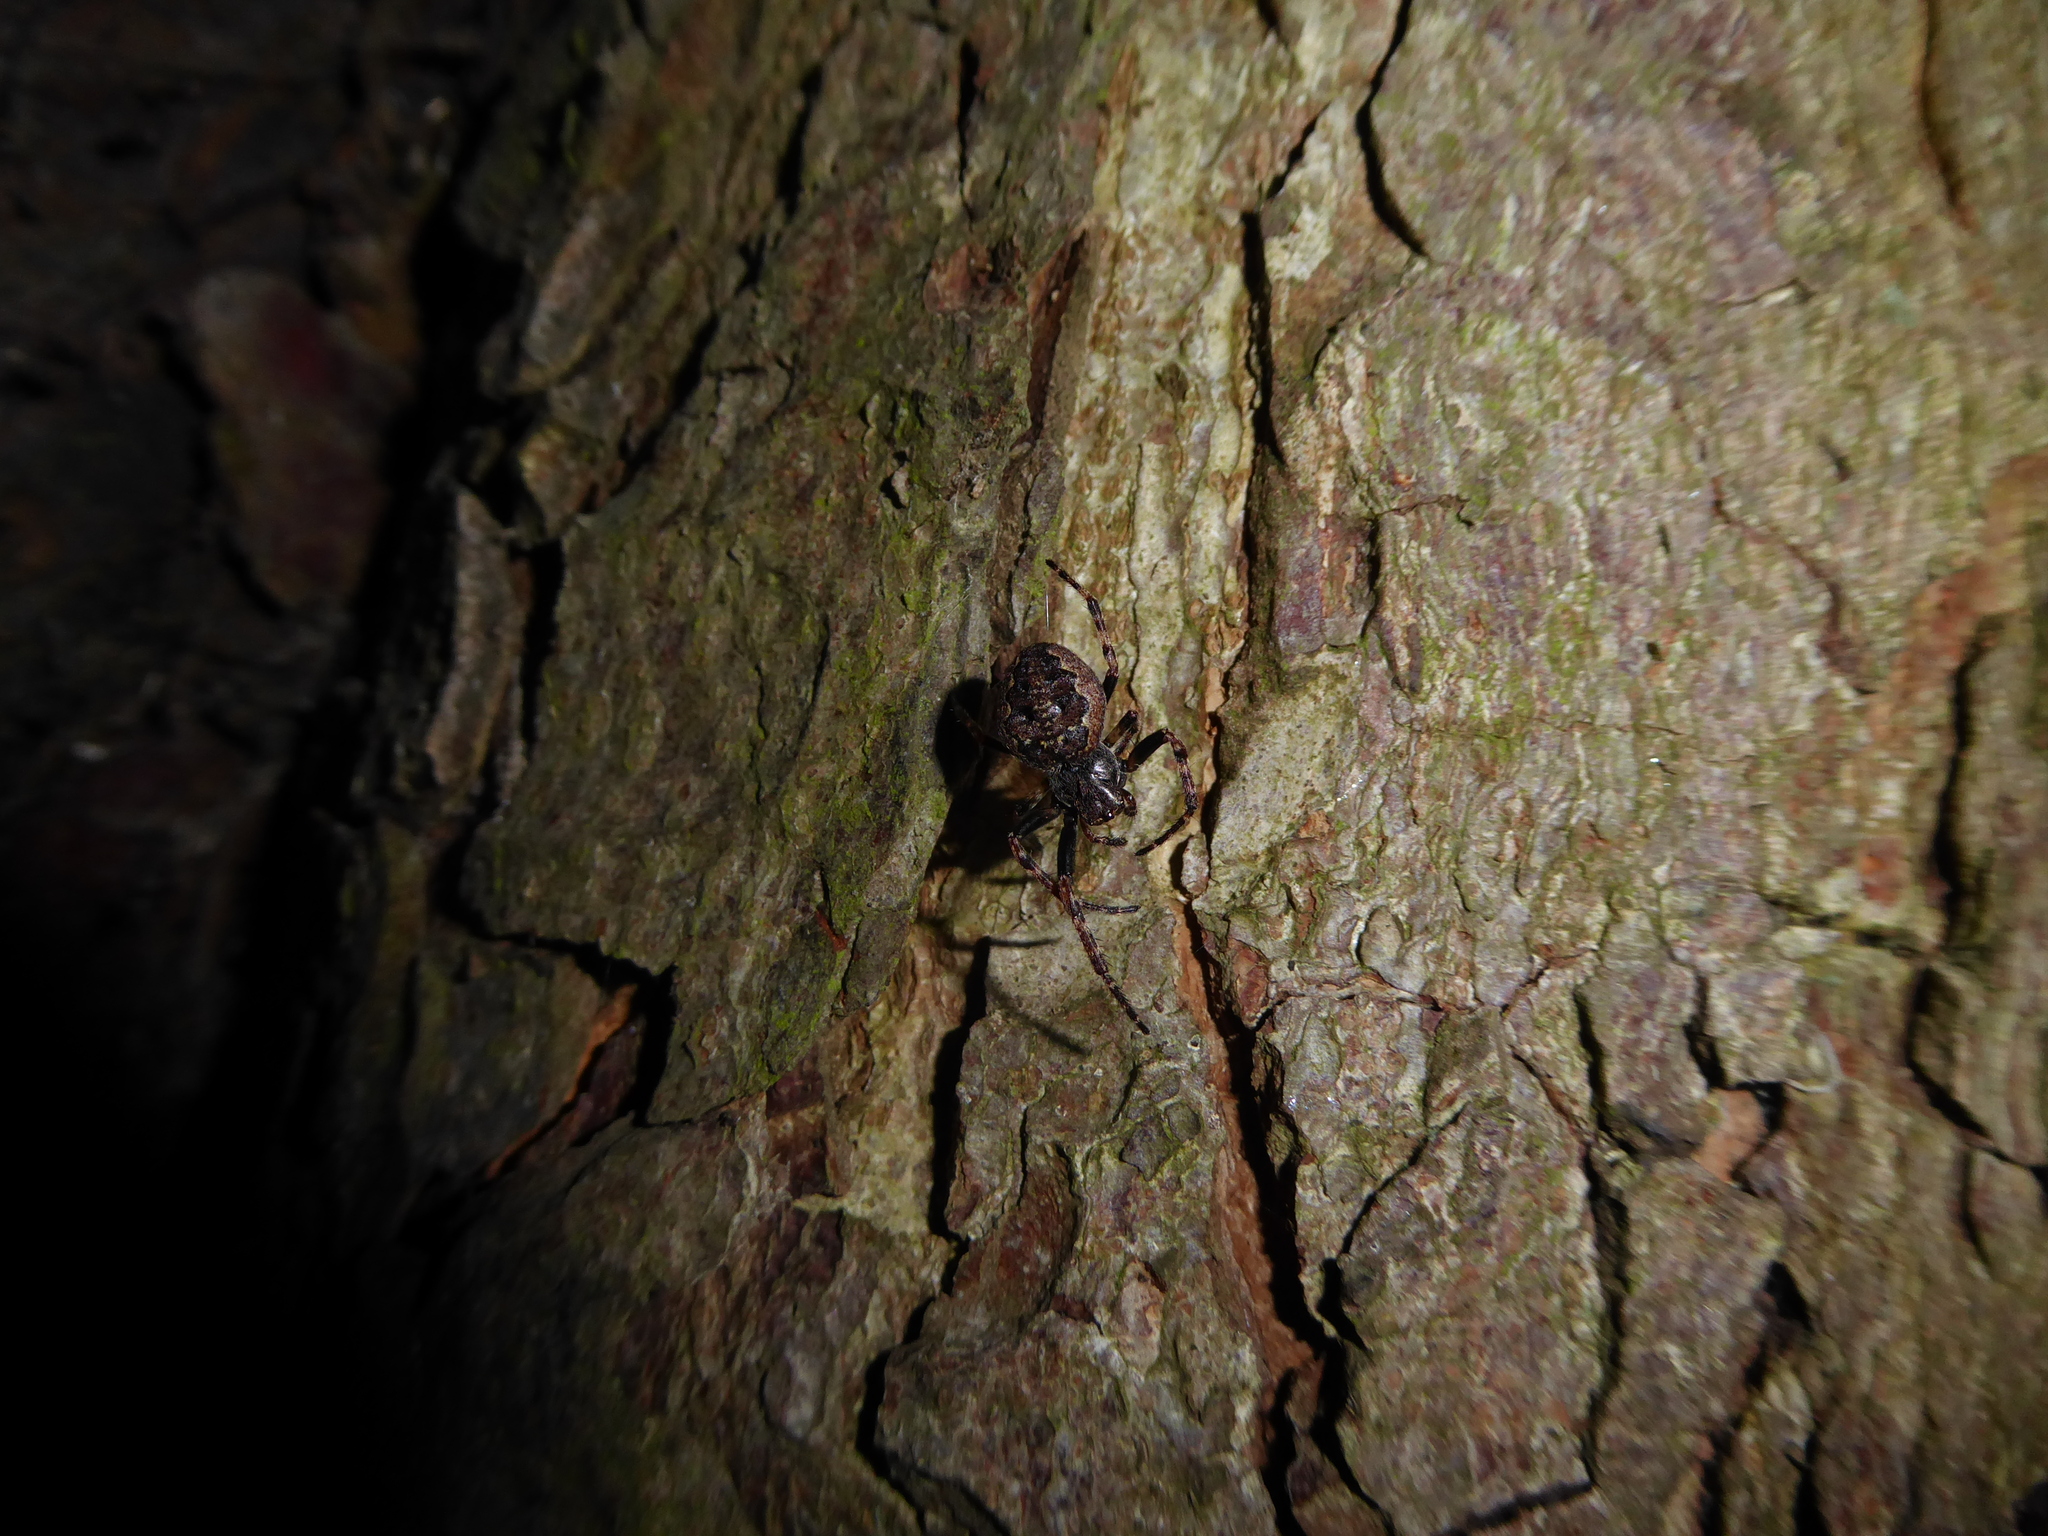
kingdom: Animalia
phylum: Arthropoda
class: Arachnida
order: Araneae
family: Araneidae
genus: Nuctenea
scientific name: Nuctenea umbratica
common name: Toad spider
